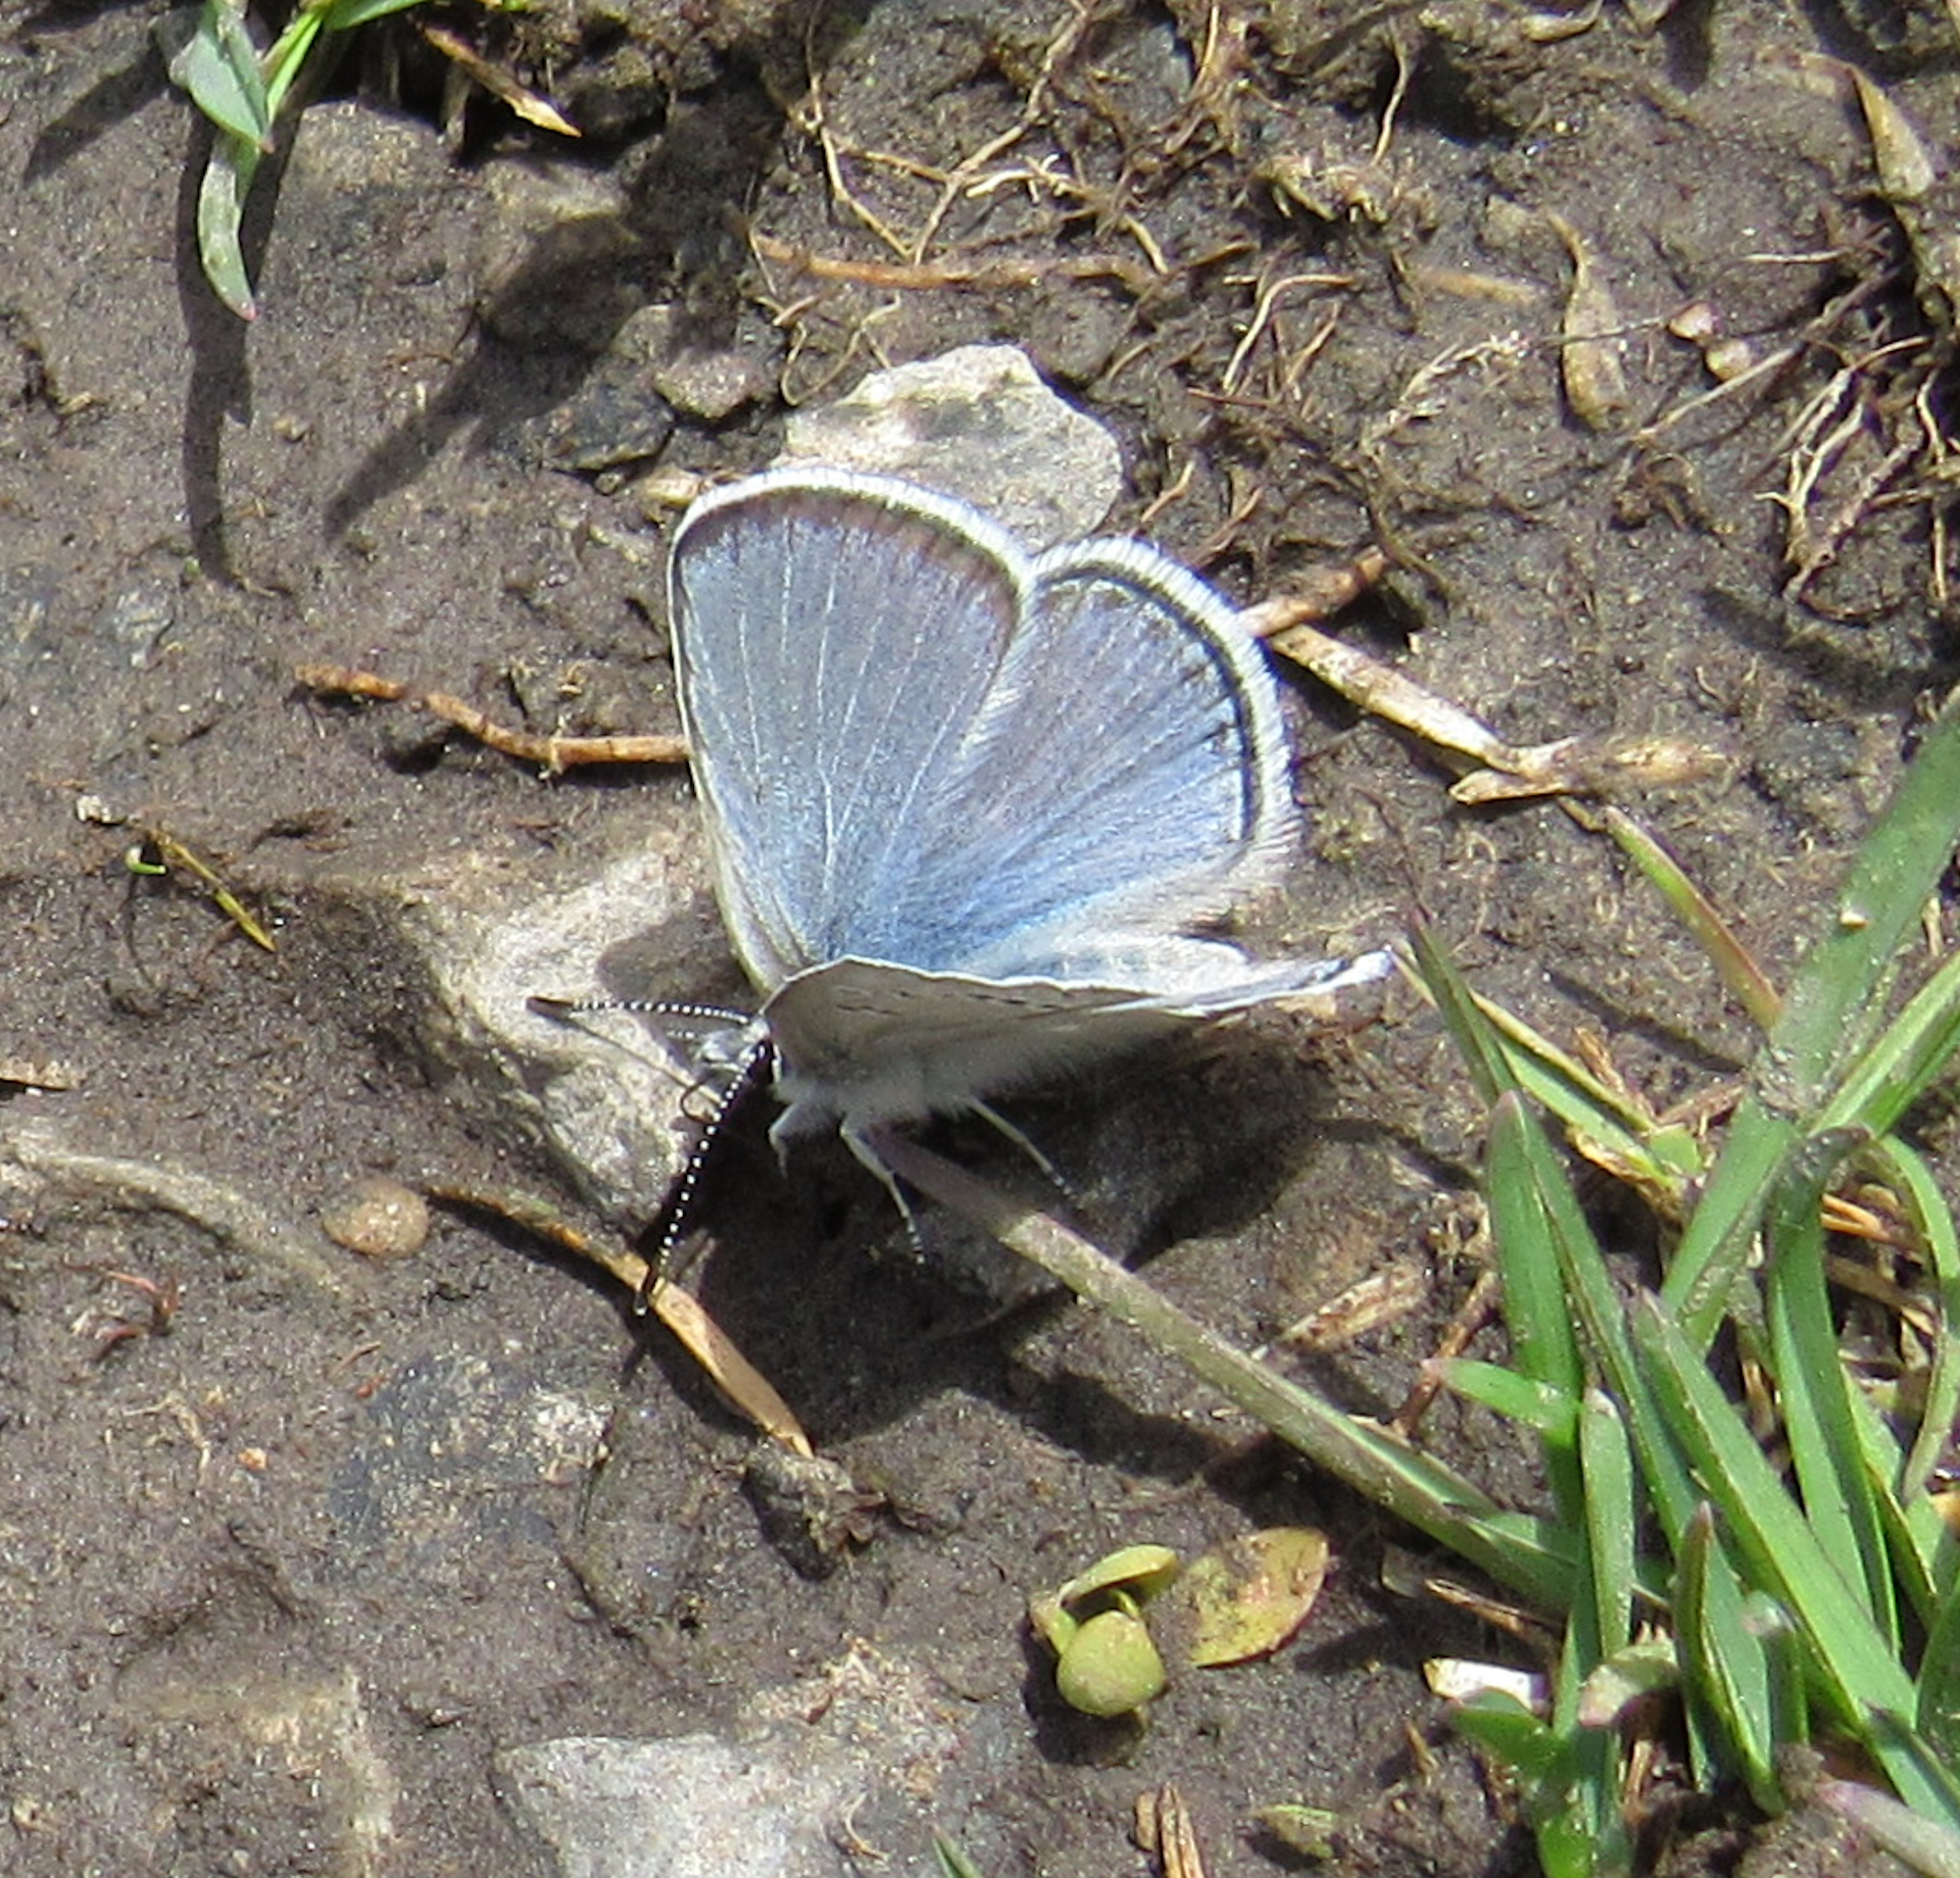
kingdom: Animalia
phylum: Arthropoda
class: Insecta
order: Lepidoptera
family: Lycaenidae
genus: Icaricia
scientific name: Icaricia icarioides
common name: Boisduval's blue
